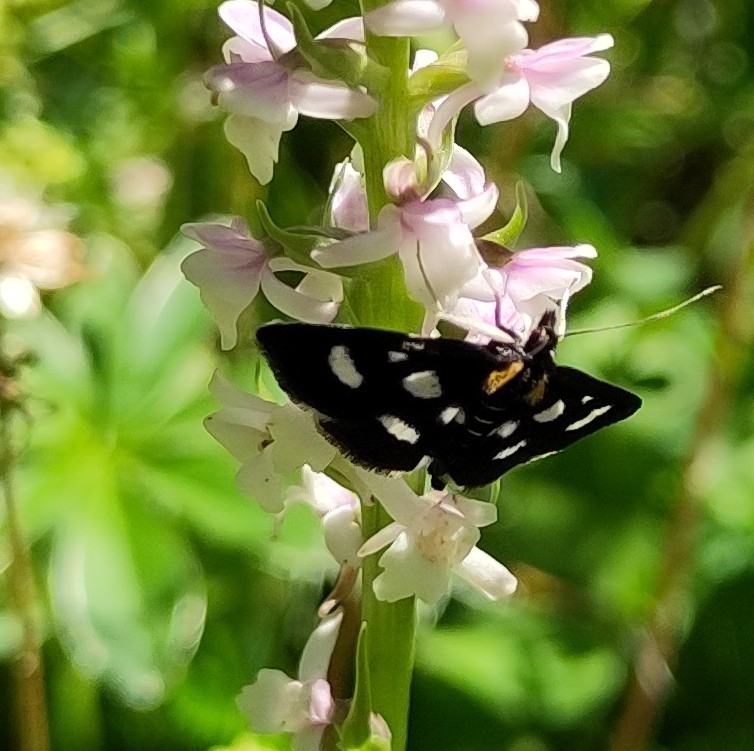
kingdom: Animalia
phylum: Arthropoda
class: Insecta
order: Lepidoptera
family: Crambidae
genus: Anania
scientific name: Anania funebris
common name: White-spotted sable moth
